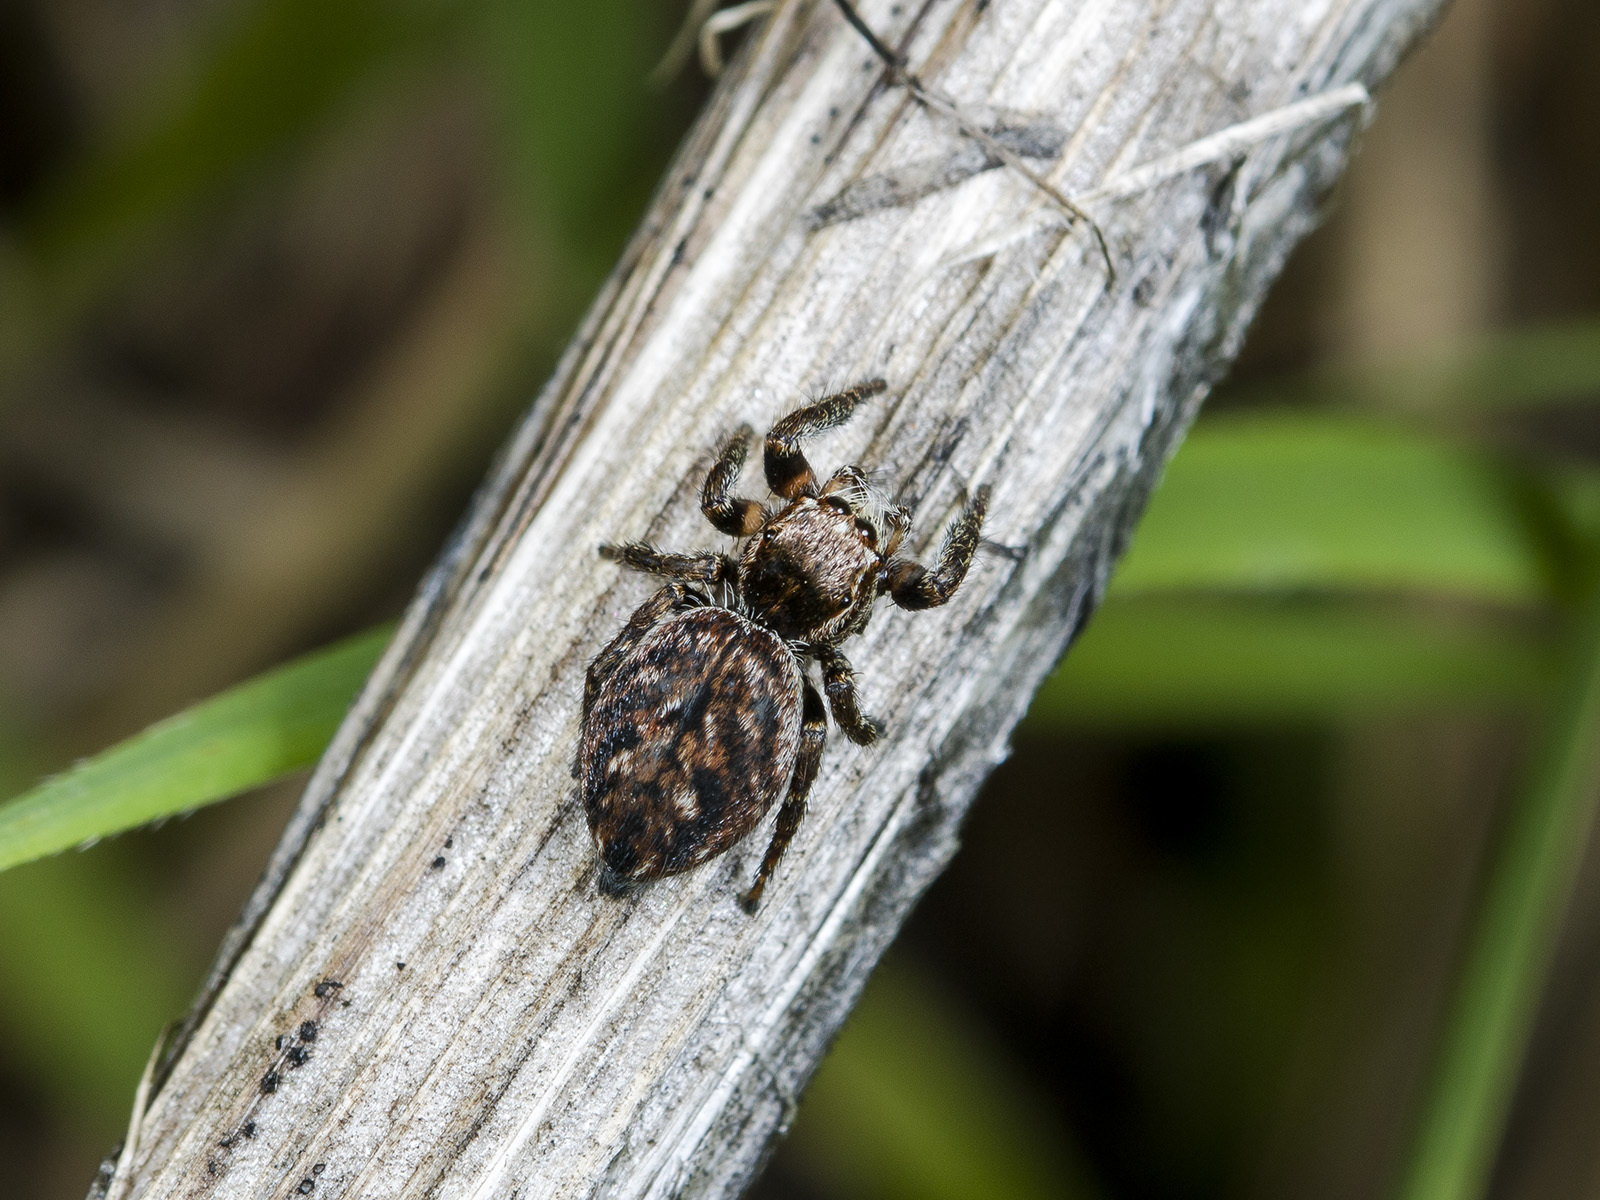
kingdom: Animalia
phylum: Arthropoda
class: Arachnida
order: Araneae
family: Salticidae
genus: Evarcha
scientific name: Evarcha michailovi
